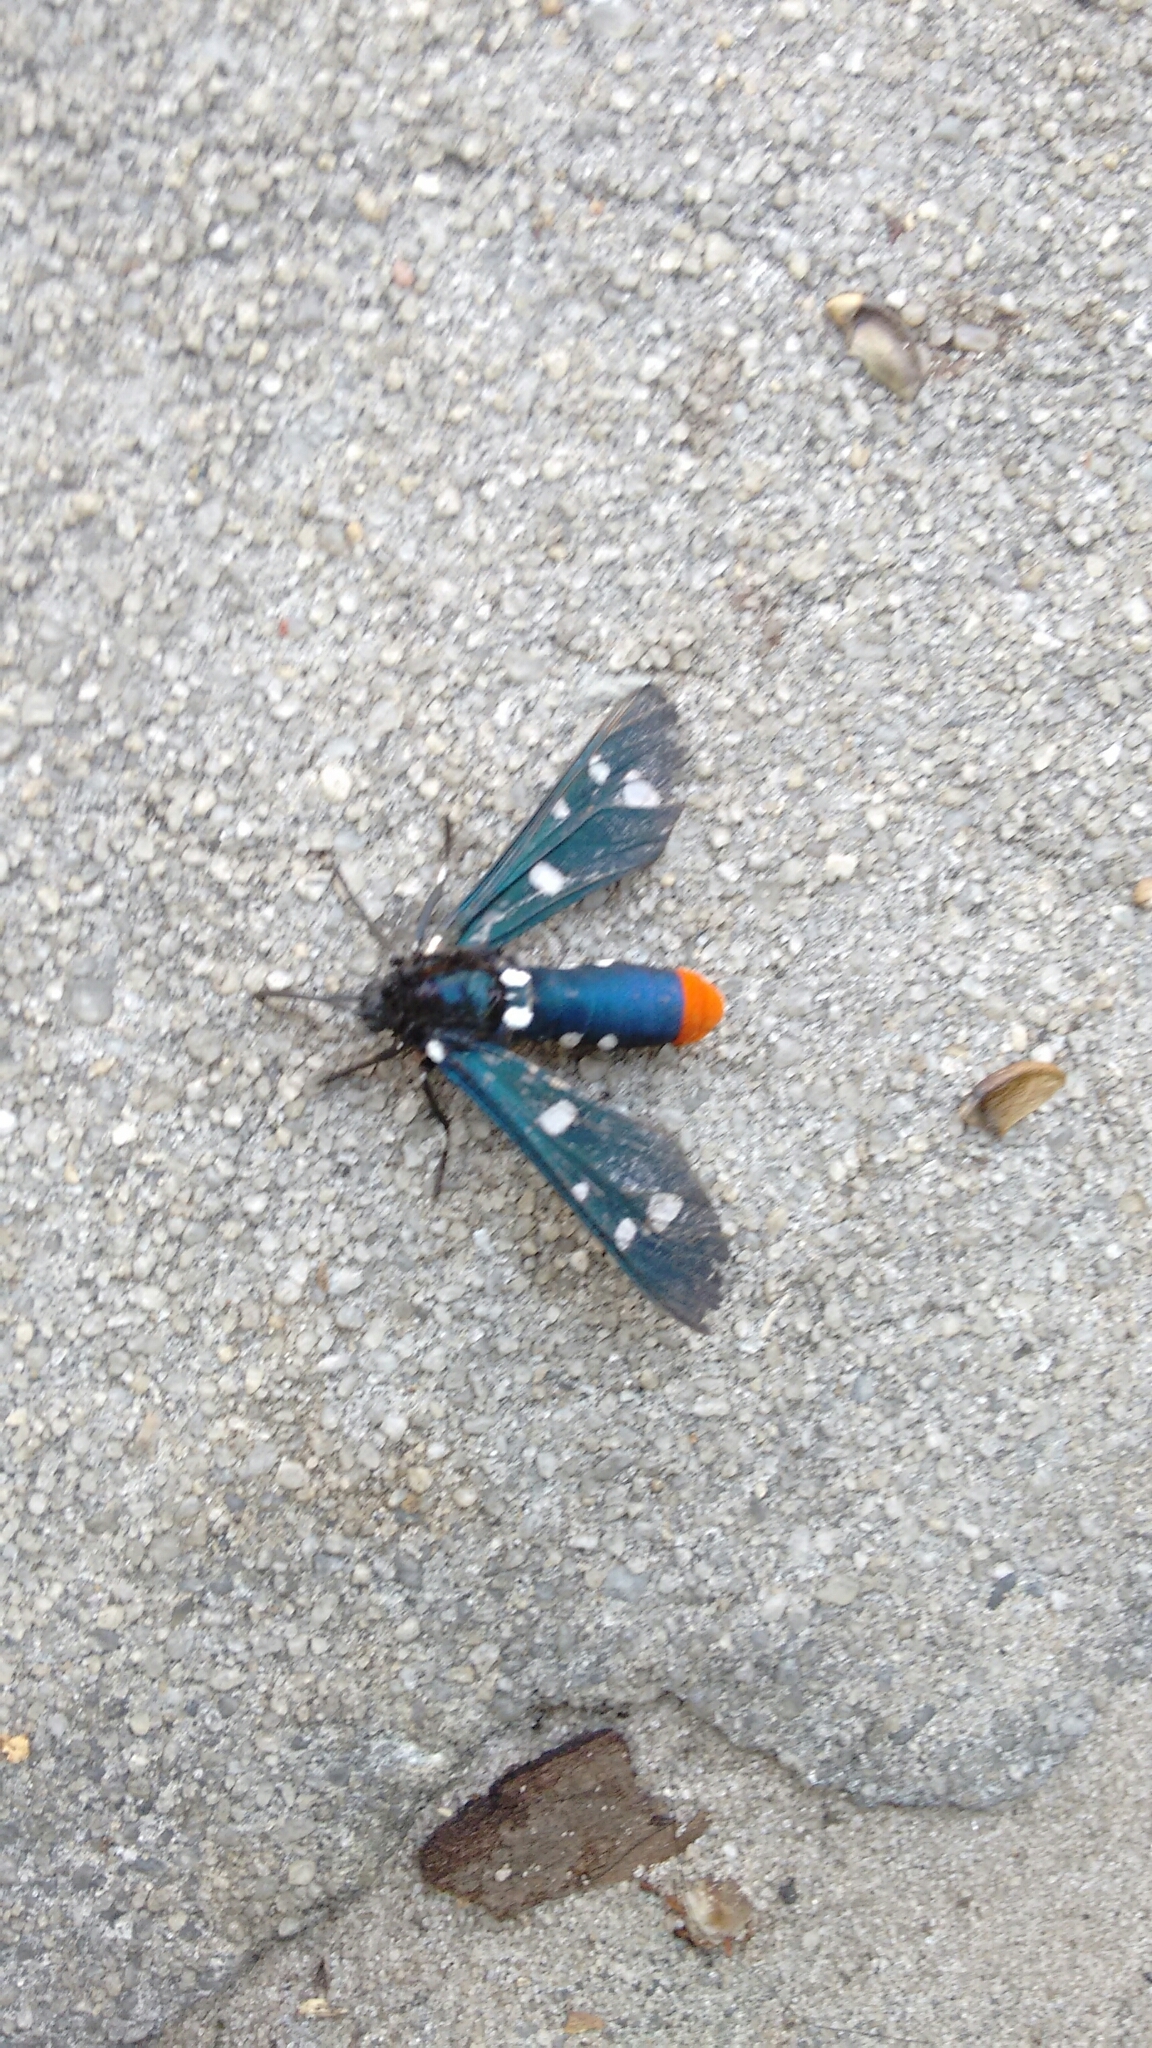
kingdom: Animalia
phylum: Arthropoda
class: Insecta
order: Lepidoptera
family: Erebidae
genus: Syntomeida
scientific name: Syntomeida epilais
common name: Polka-dot wasp moth
